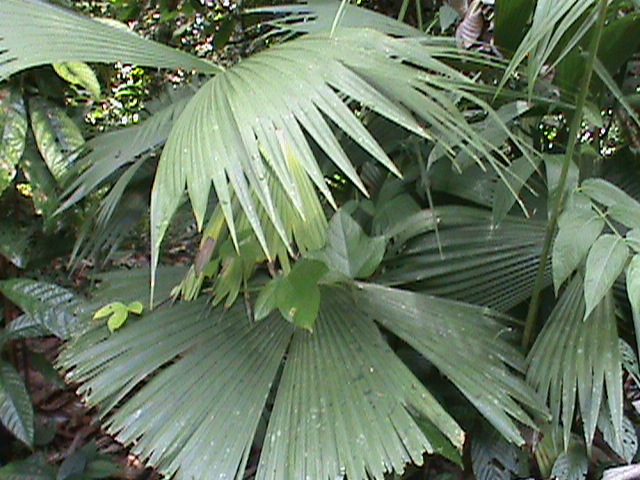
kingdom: Plantae
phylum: Tracheophyta
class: Liliopsida
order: Pandanales
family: Cyclanthaceae
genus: Carludovica
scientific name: Carludovica palmata
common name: Panama hat plant
